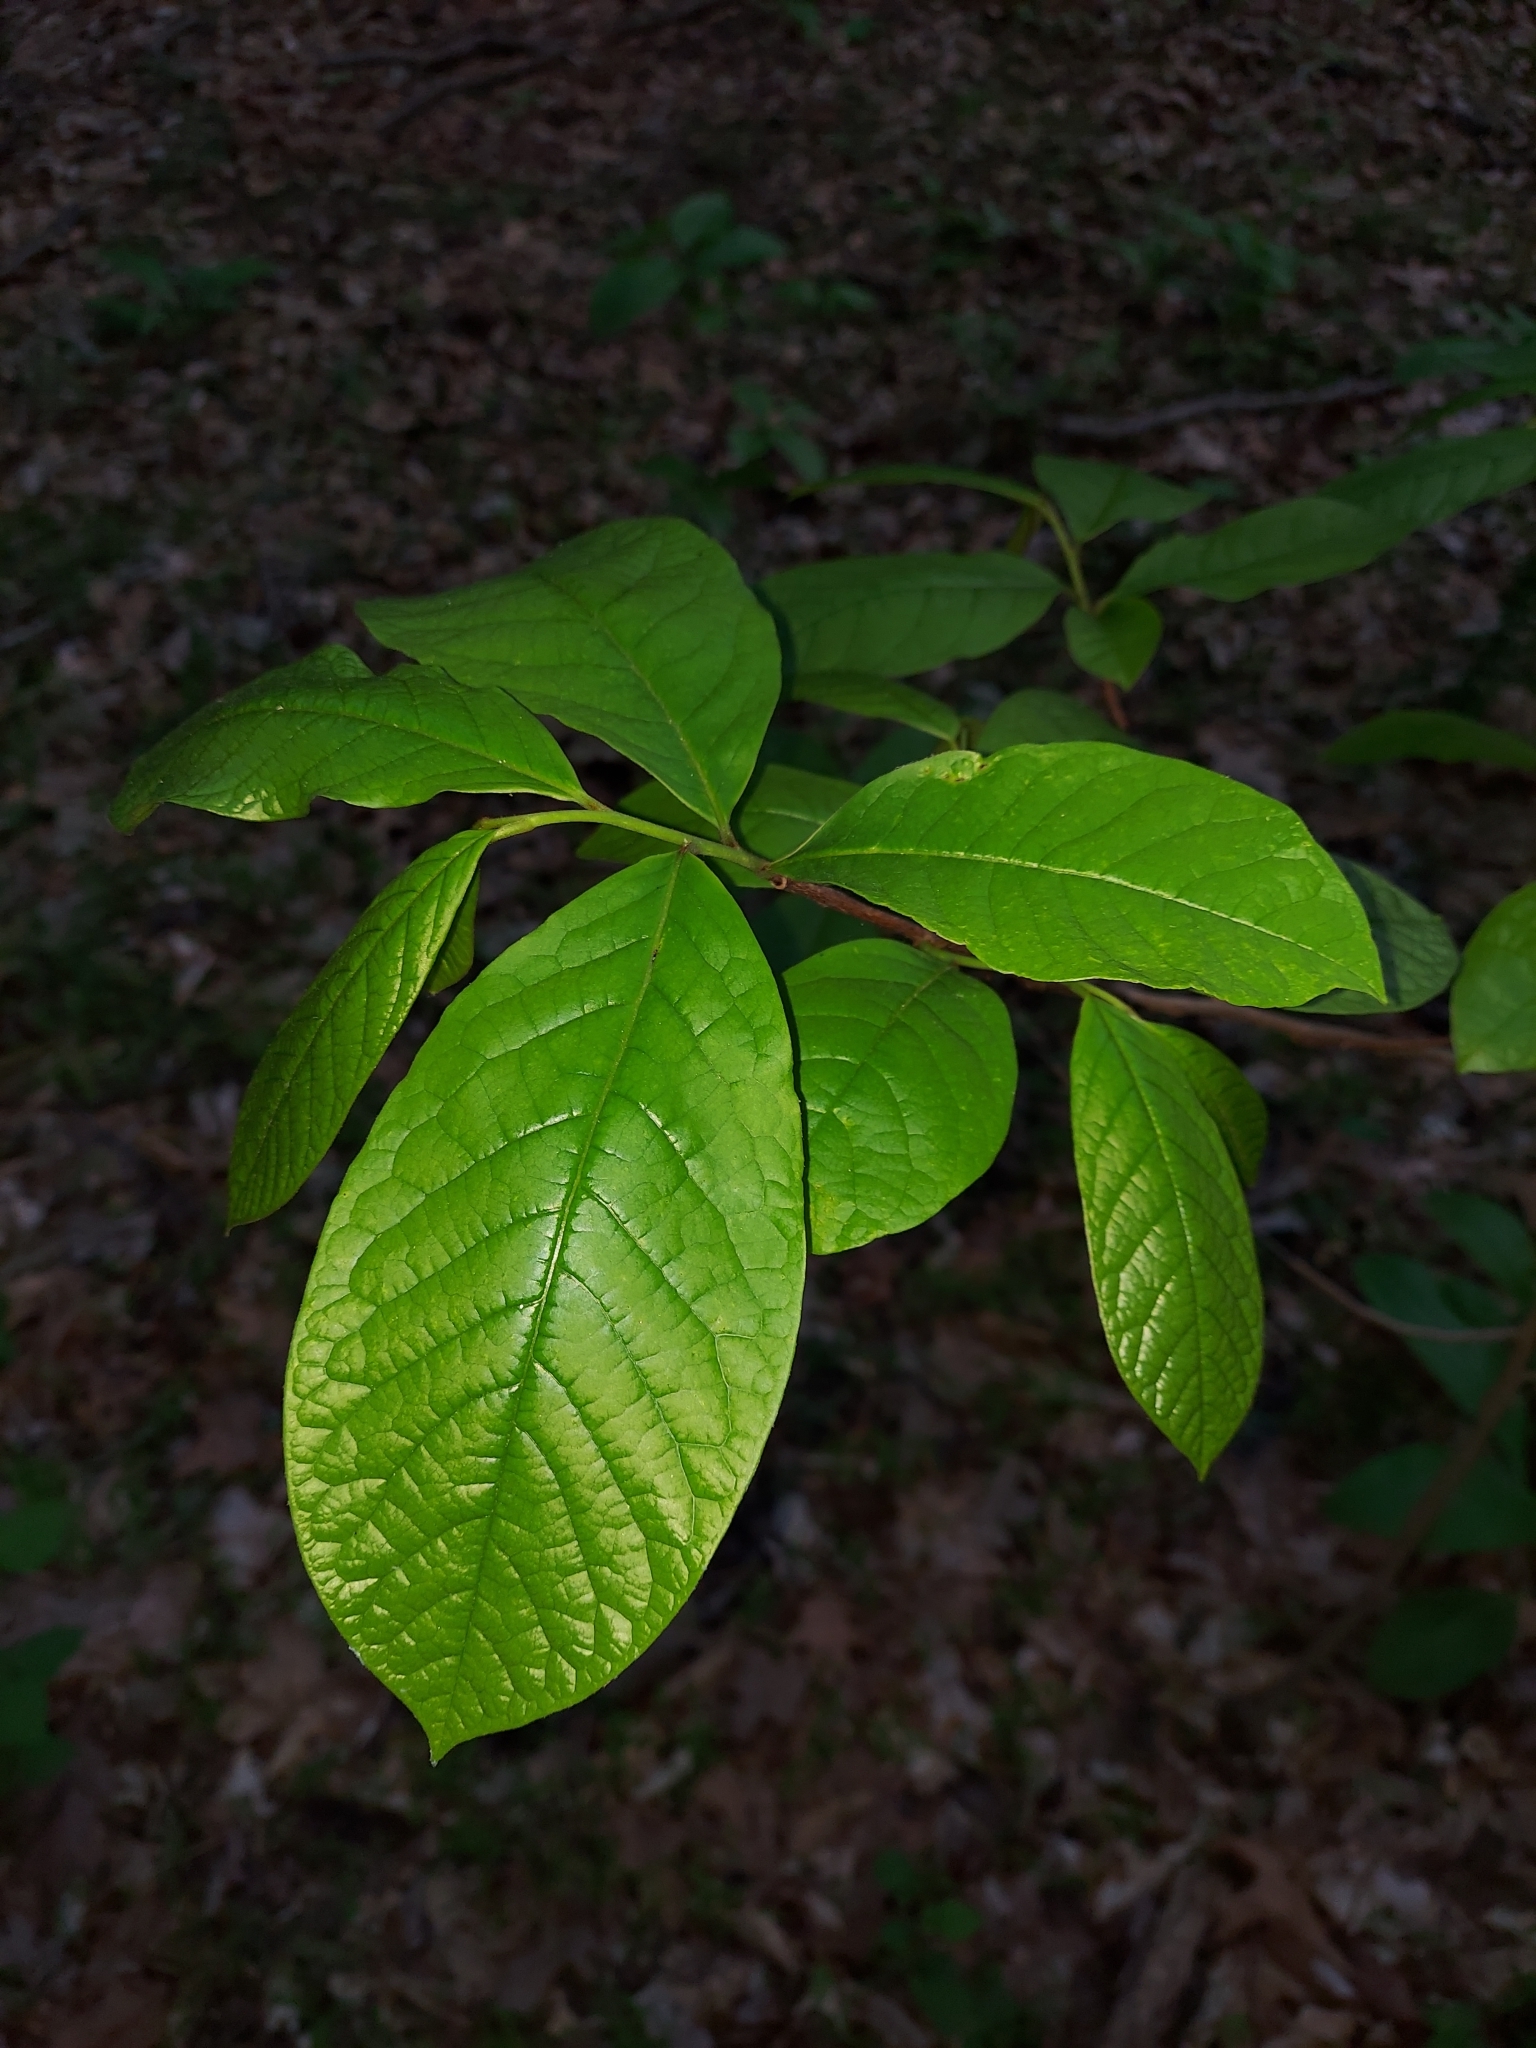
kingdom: Plantae
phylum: Tracheophyta
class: Magnoliopsida
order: Magnoliales
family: Annonaceae
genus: Asimina
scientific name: Asimina triloba
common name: Dog-banana
